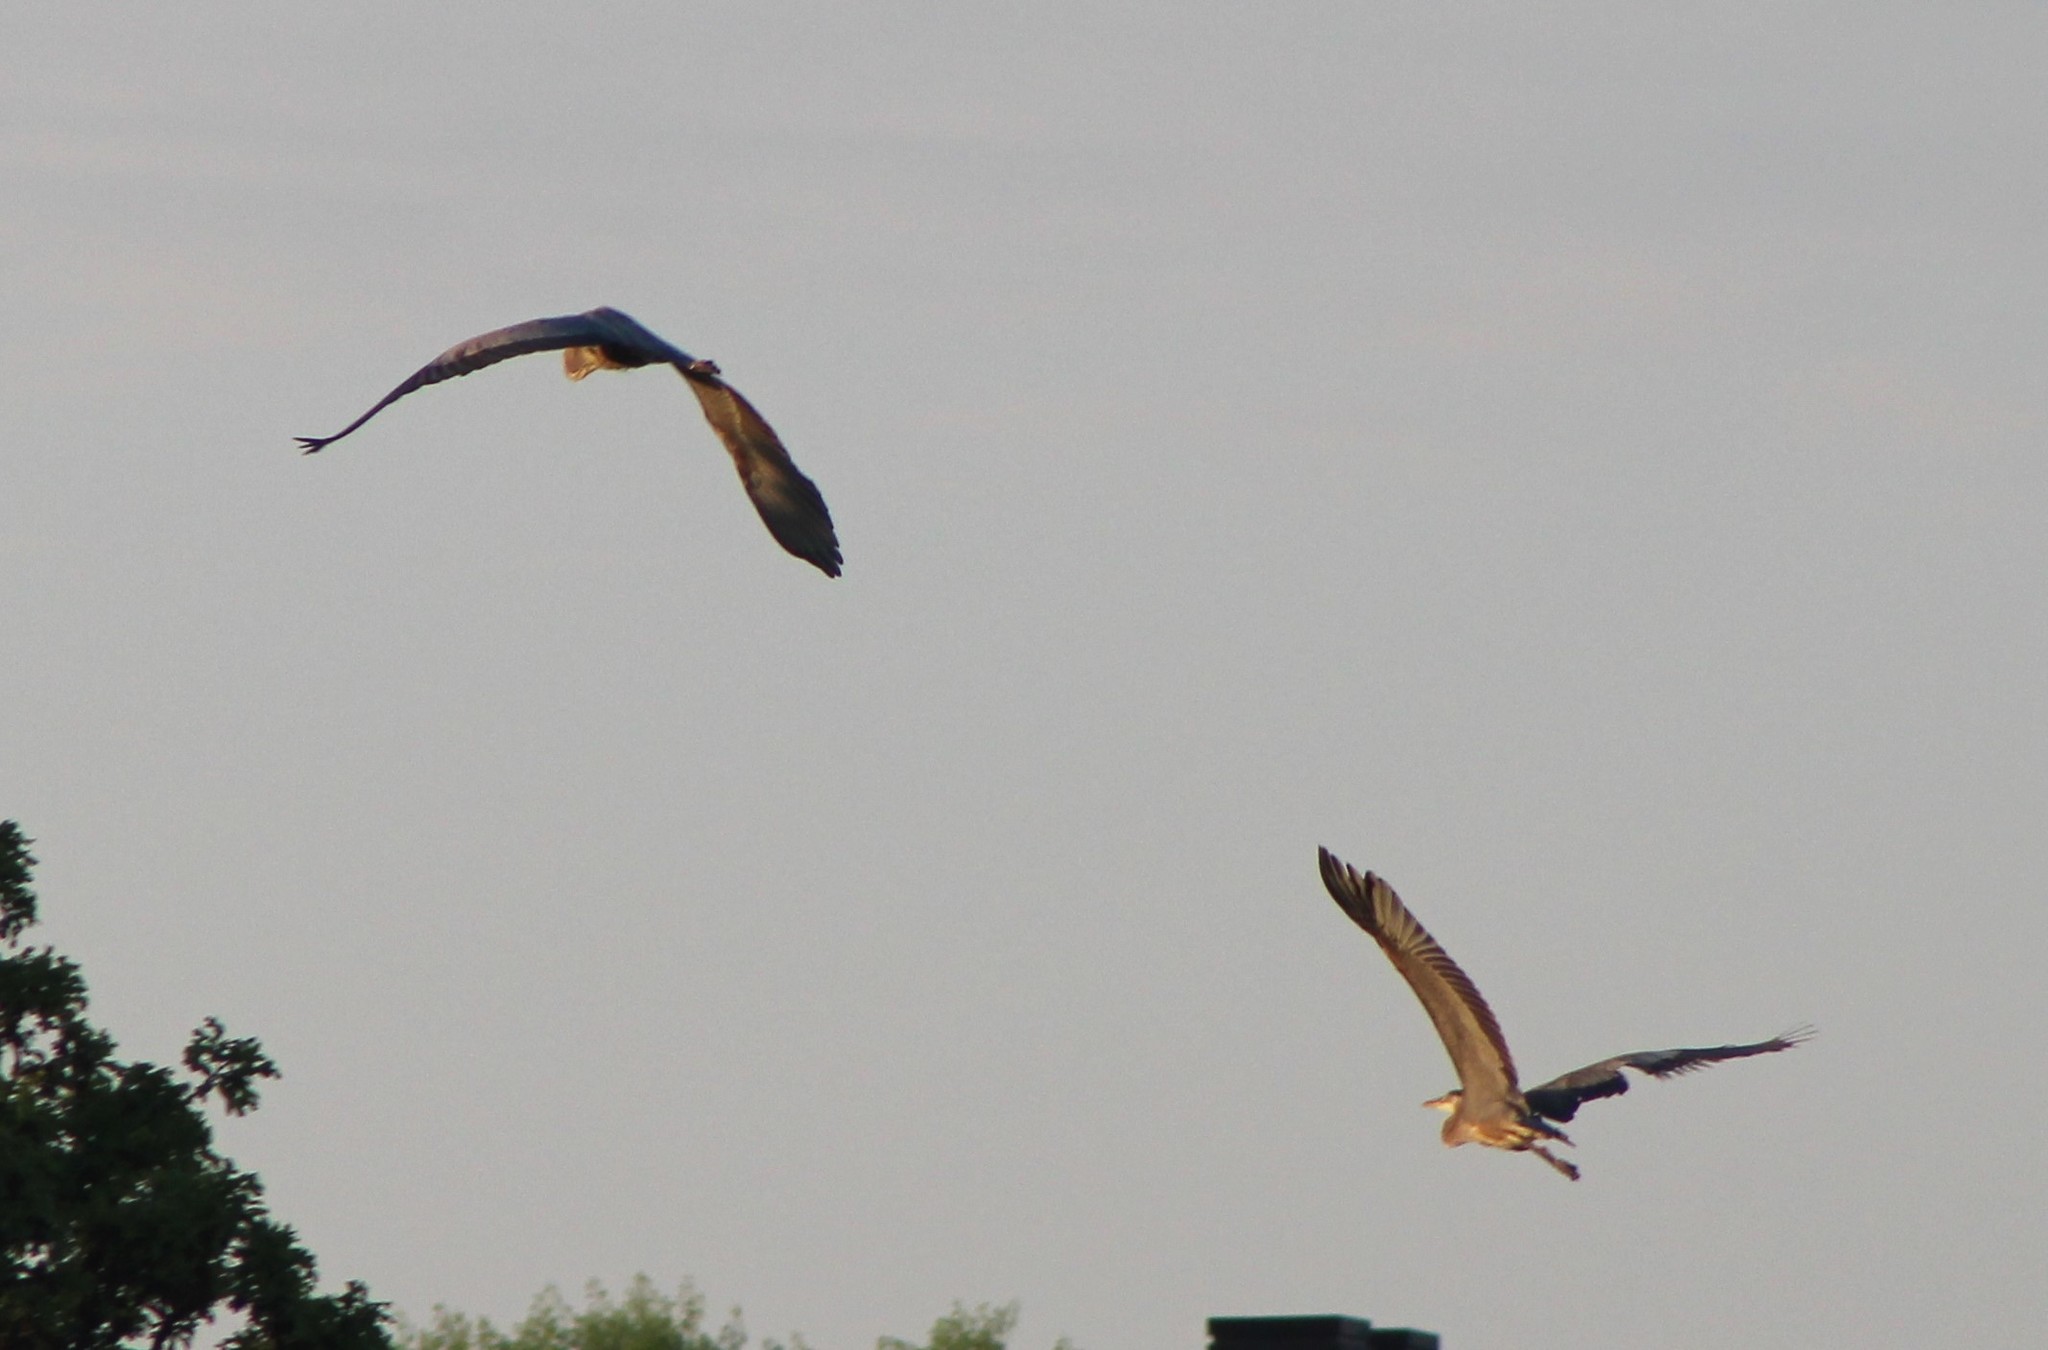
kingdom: Animalia
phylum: Chordata
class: Aves
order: Pelecaniformes
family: Ardeidae
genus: Ardea
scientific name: Ardea herodias
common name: Great blue heron
